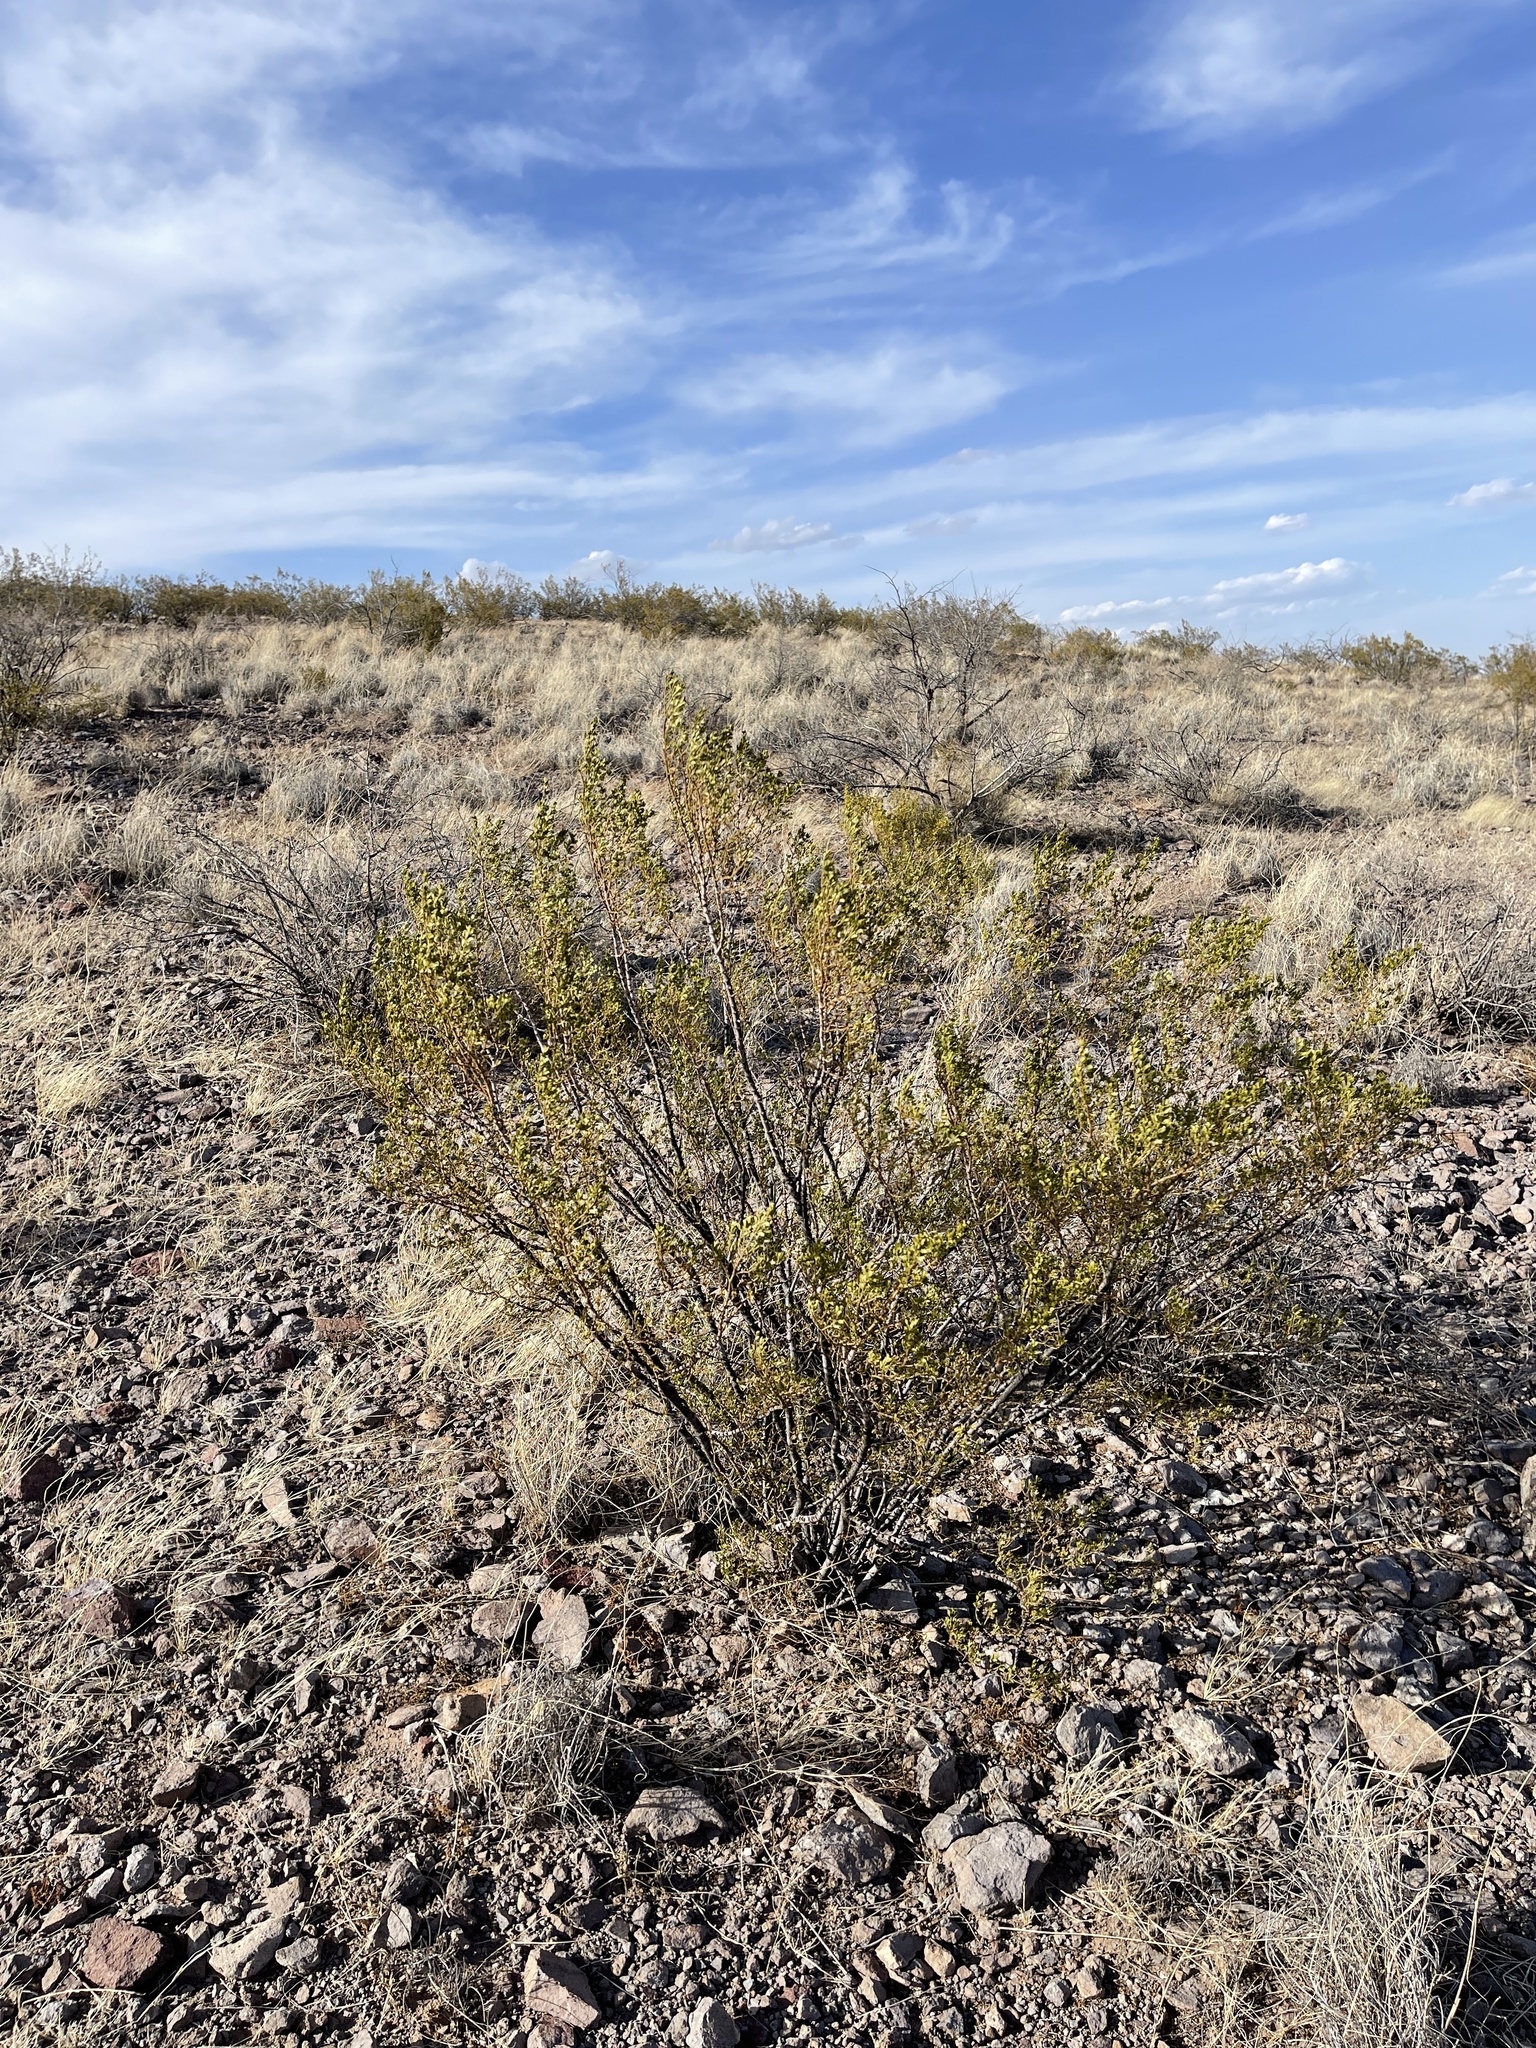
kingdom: Plantae
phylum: Tracheophyta
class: Magnoliopsida
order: Zygophyllales
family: Zygophyllaceae
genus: Larrea
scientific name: Larrea tridentata
